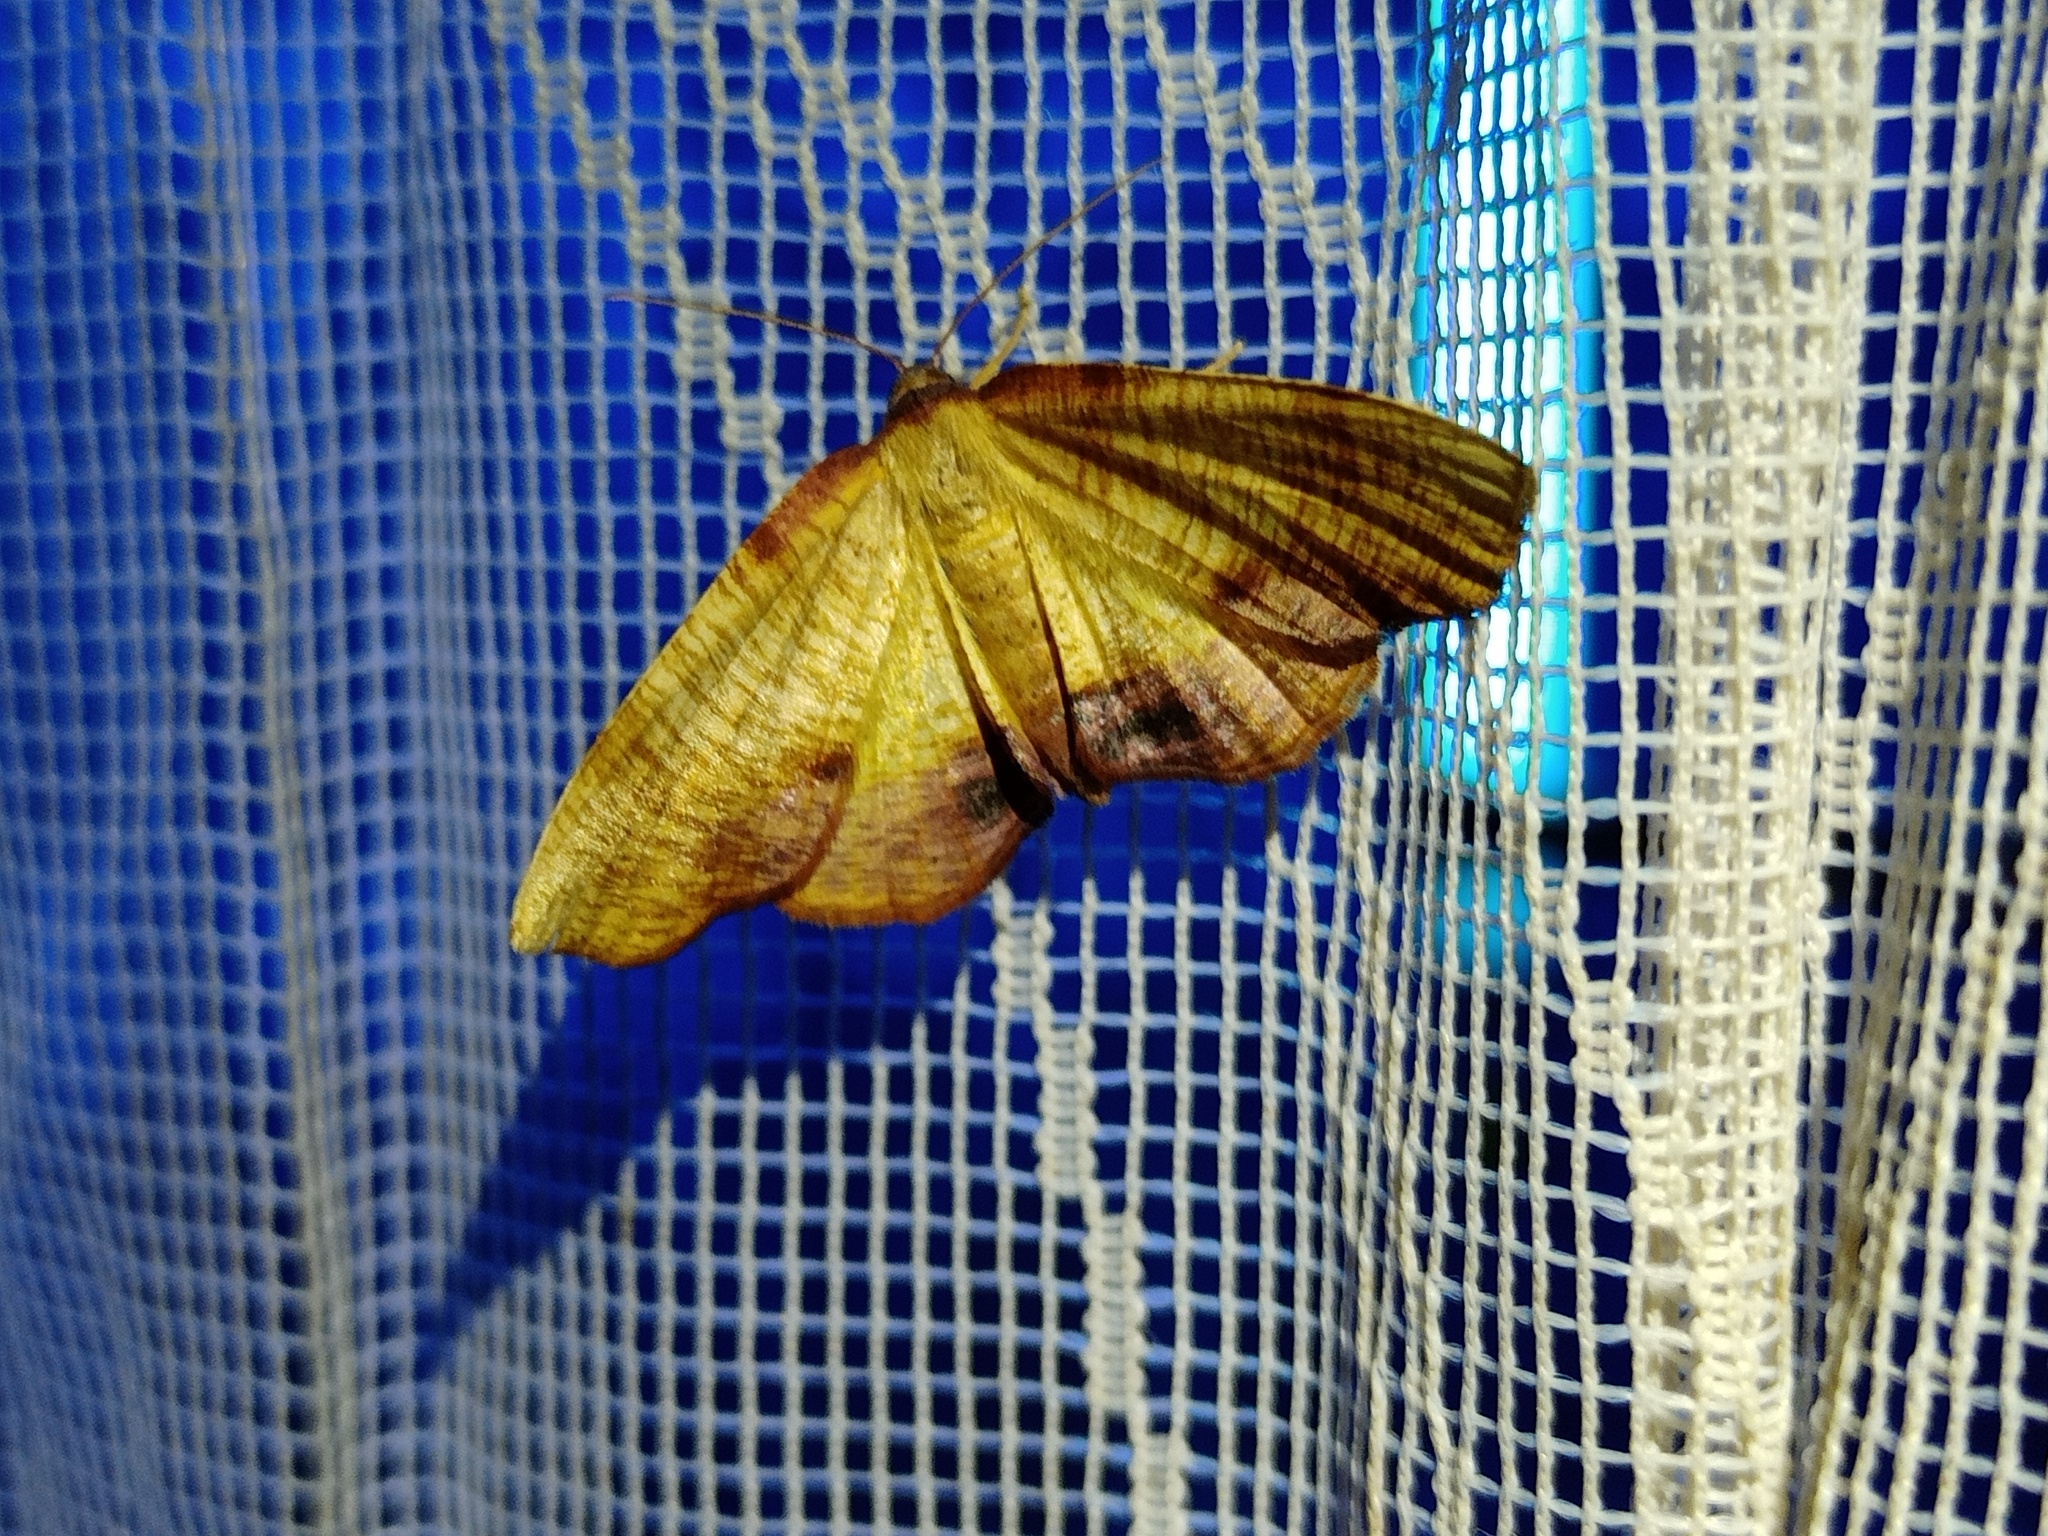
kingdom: Animalia
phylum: Arthropoda
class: Insecta
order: Lepidoptera
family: Geometridae
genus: Plagodis
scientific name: Plagodis dolabraria
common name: Scorched wing
